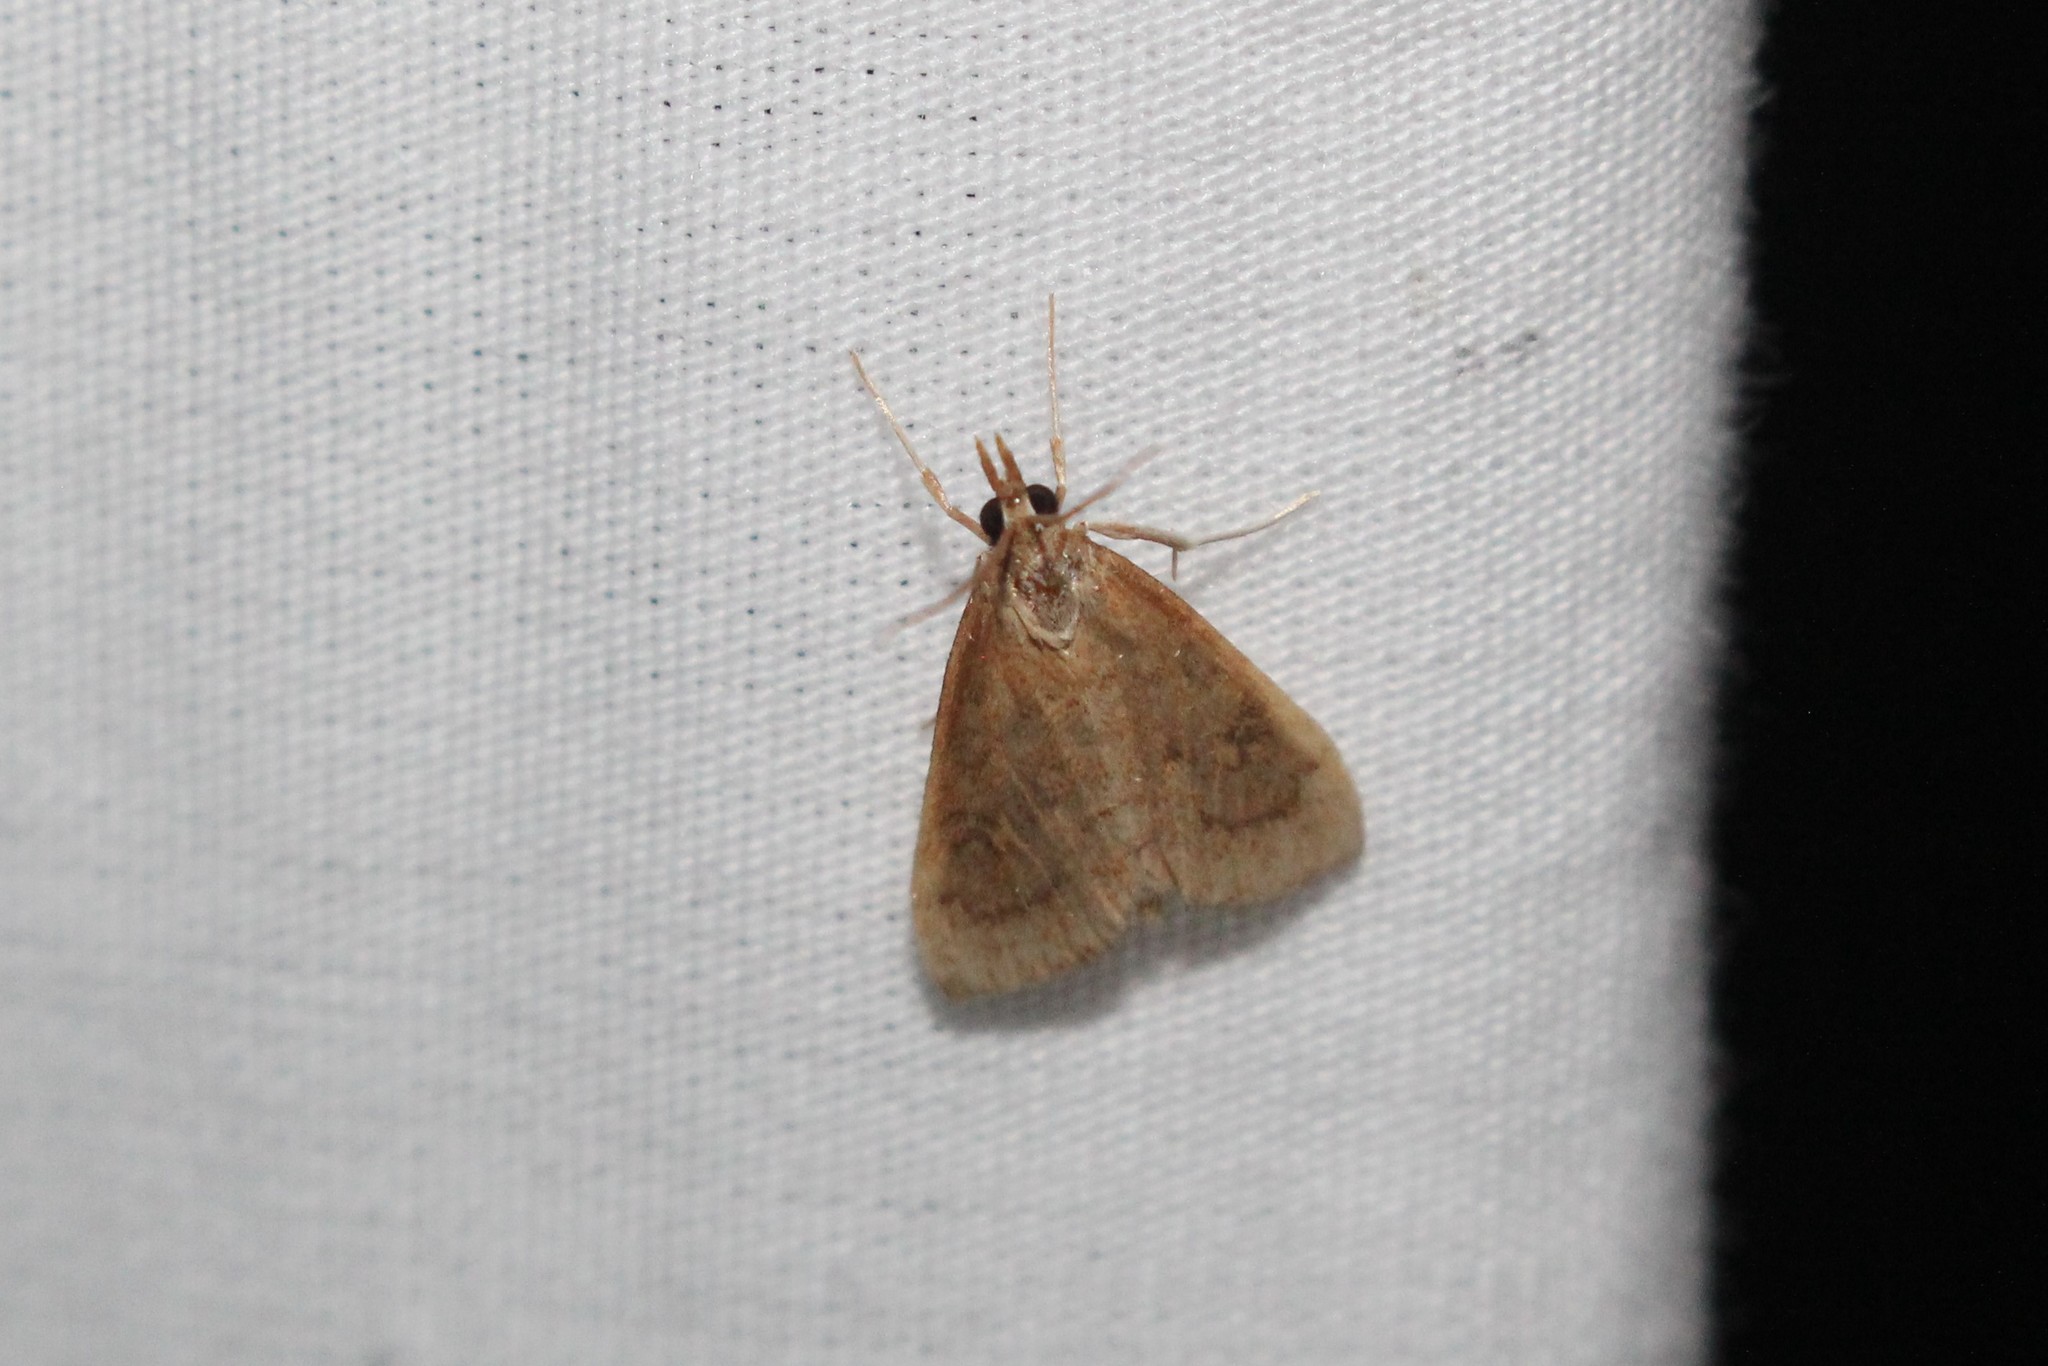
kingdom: Animalia
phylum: Arthropoda
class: Insecta
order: Lepidoptera
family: Crambidae
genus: Udea
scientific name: Udea rubigalis
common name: Celery leaftier moth
